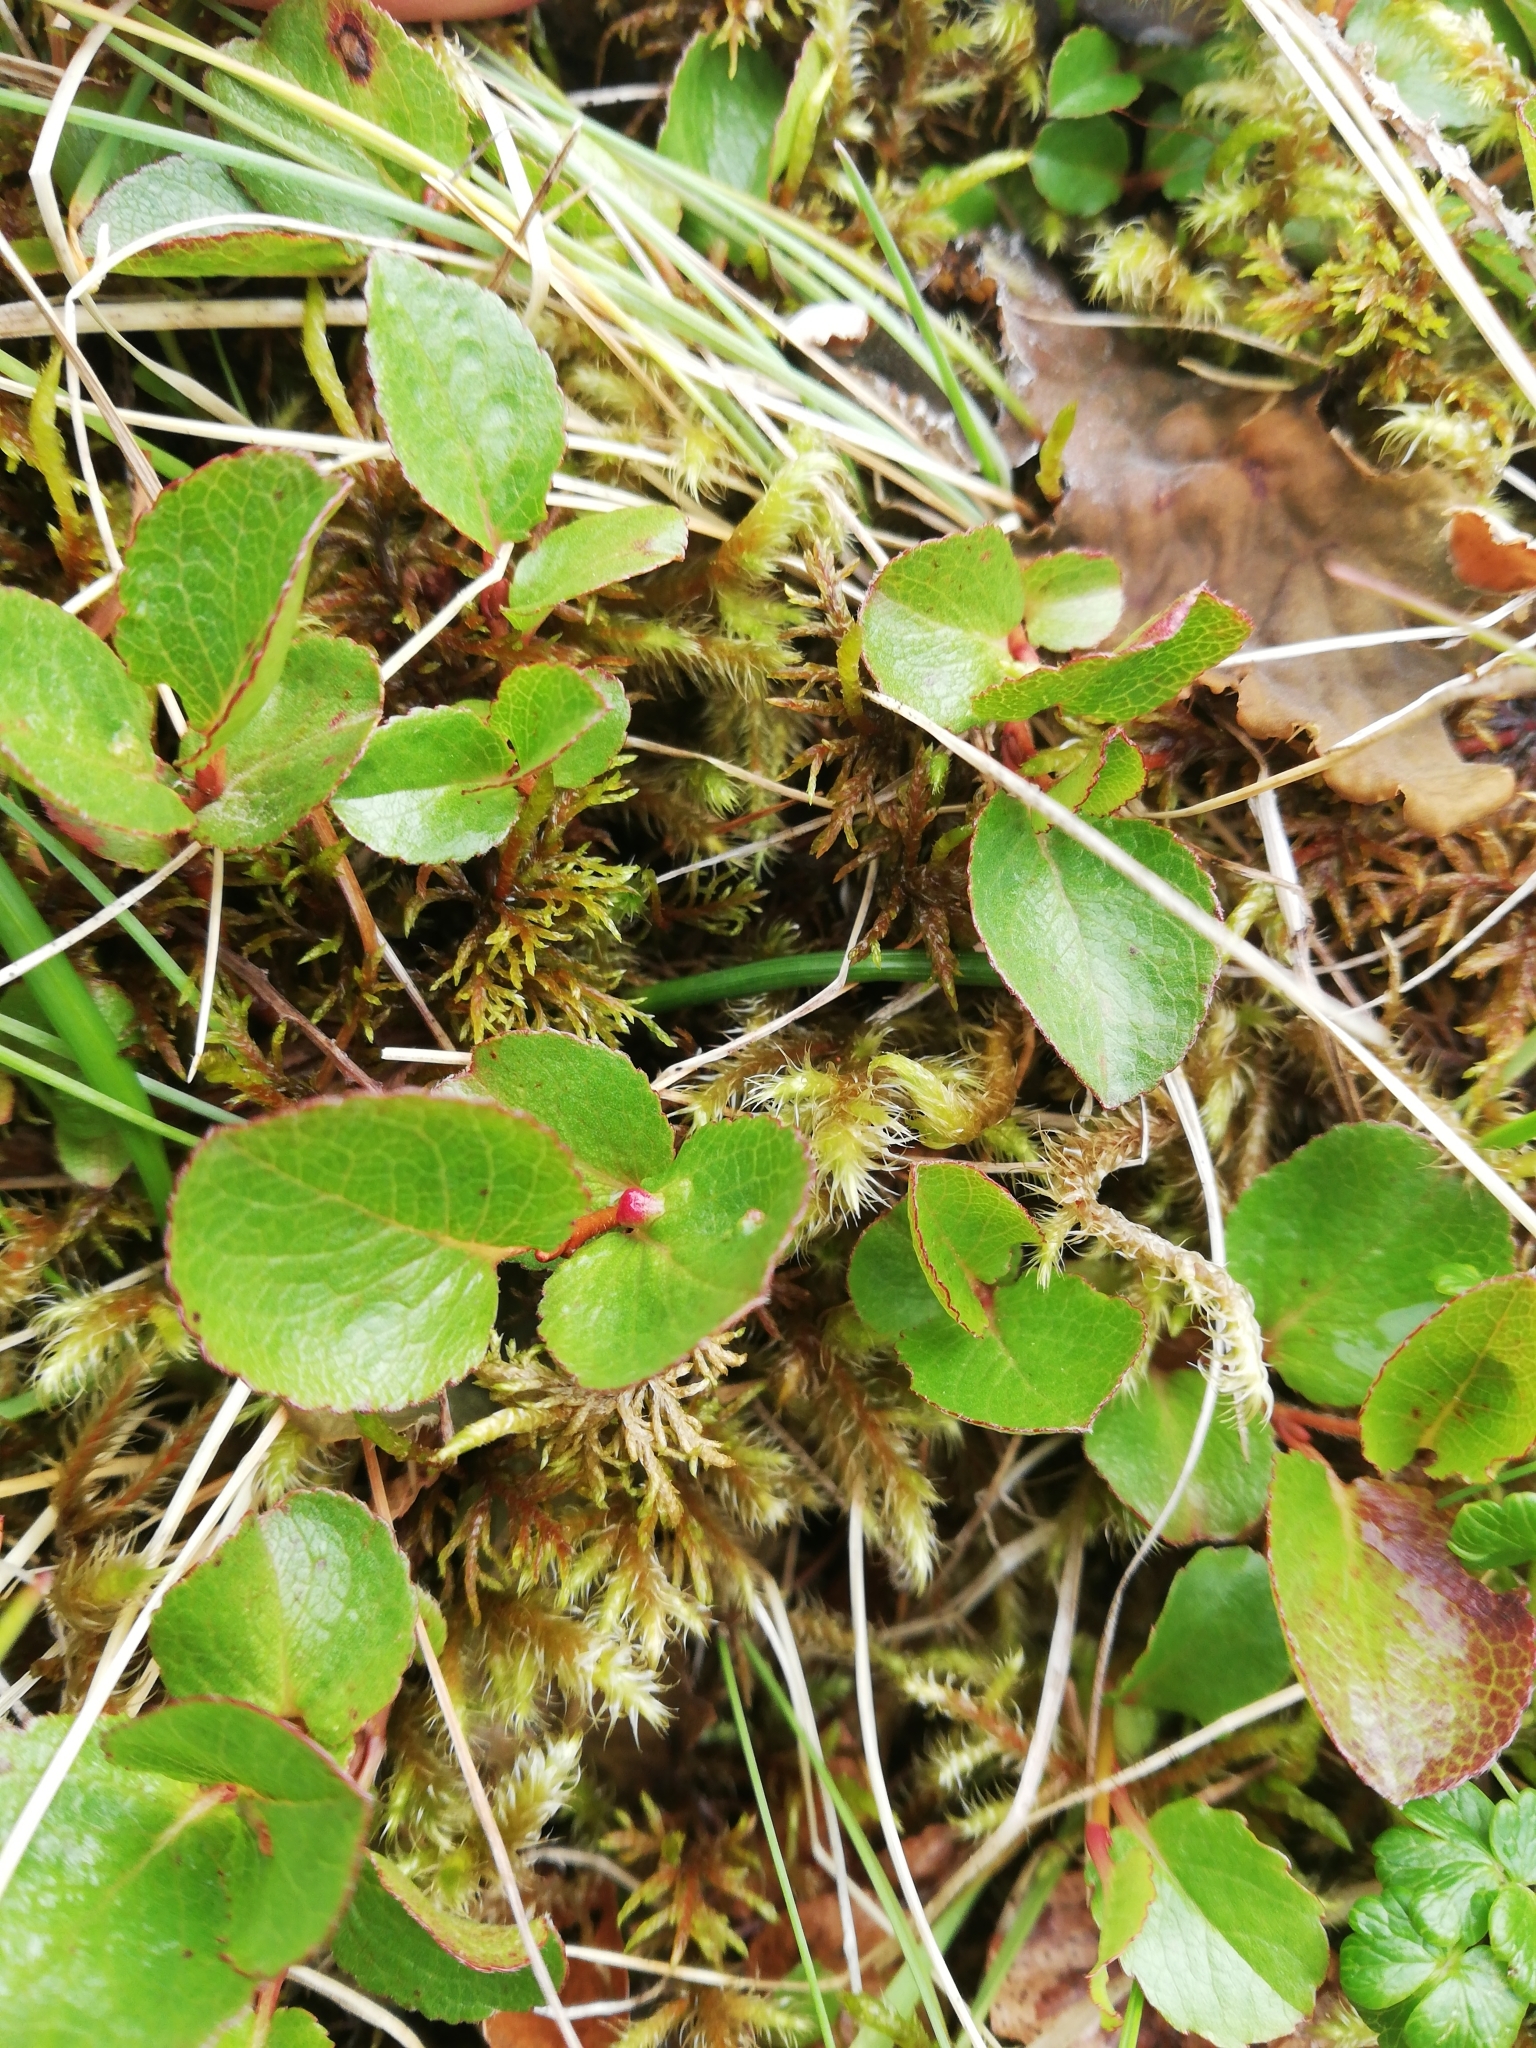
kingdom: Plantae
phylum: Tracheophyta
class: Magnoliopsida
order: Malpighiales
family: Salicaceae
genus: Salix
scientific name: Salix herbacea
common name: Dwarf willow
